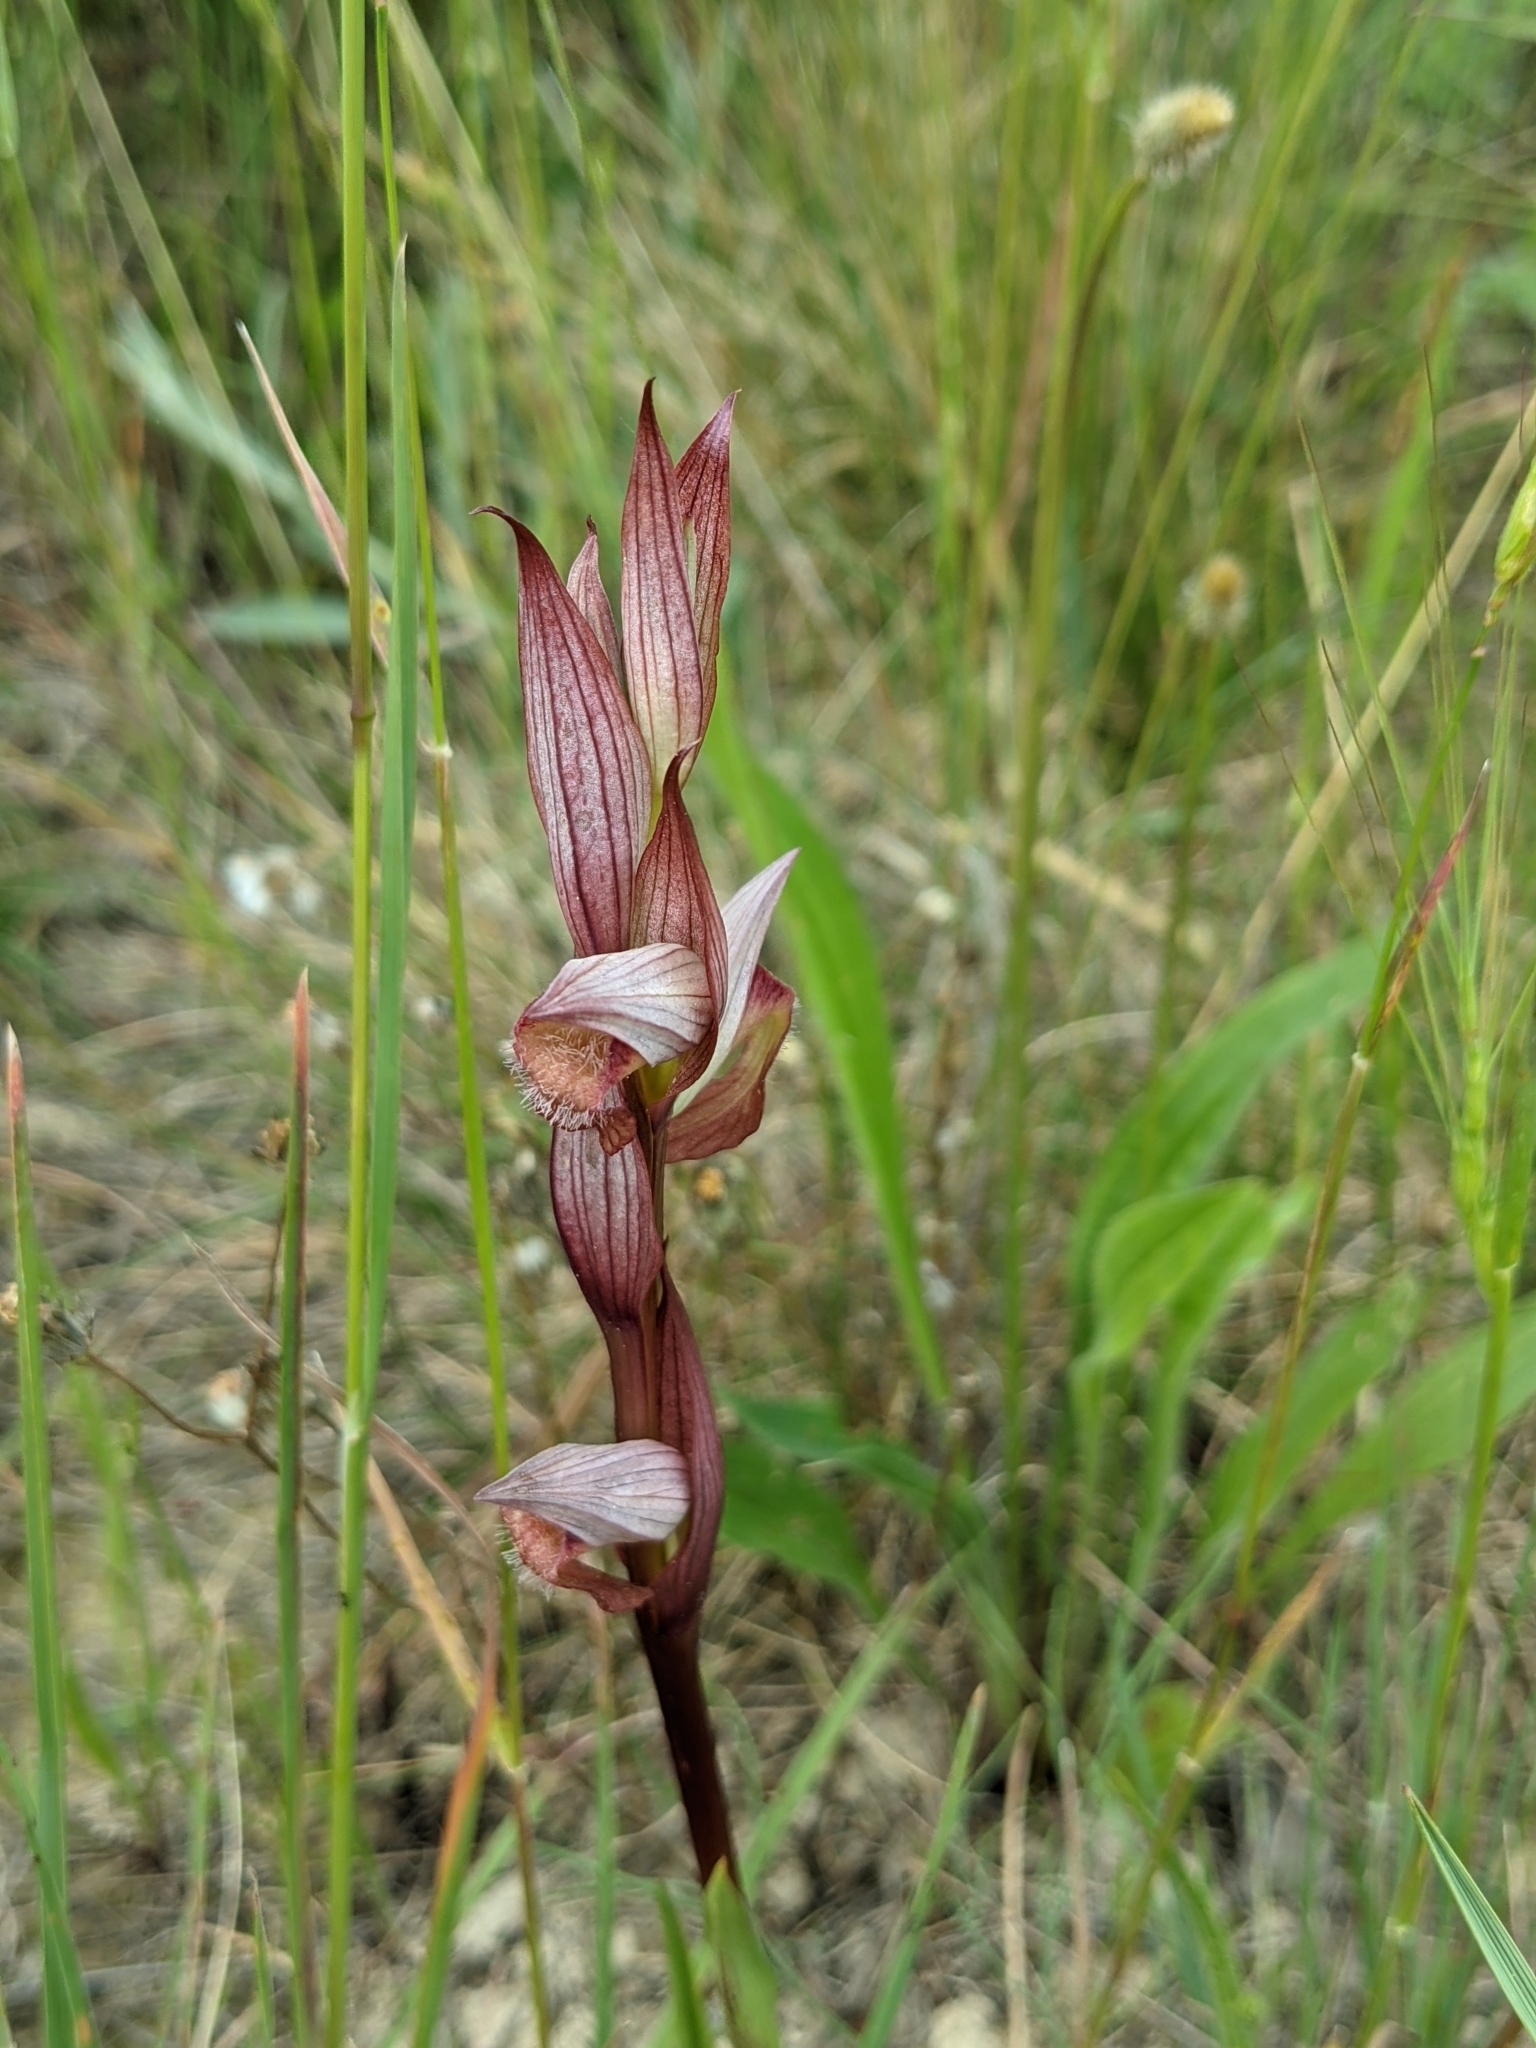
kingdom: Plantae
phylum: Tracheophyta
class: Liliopsida
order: Asparagales
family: Orchidaceae
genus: Serapias
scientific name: Serapias vomeracea
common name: Long-lipped tongue-orchid
